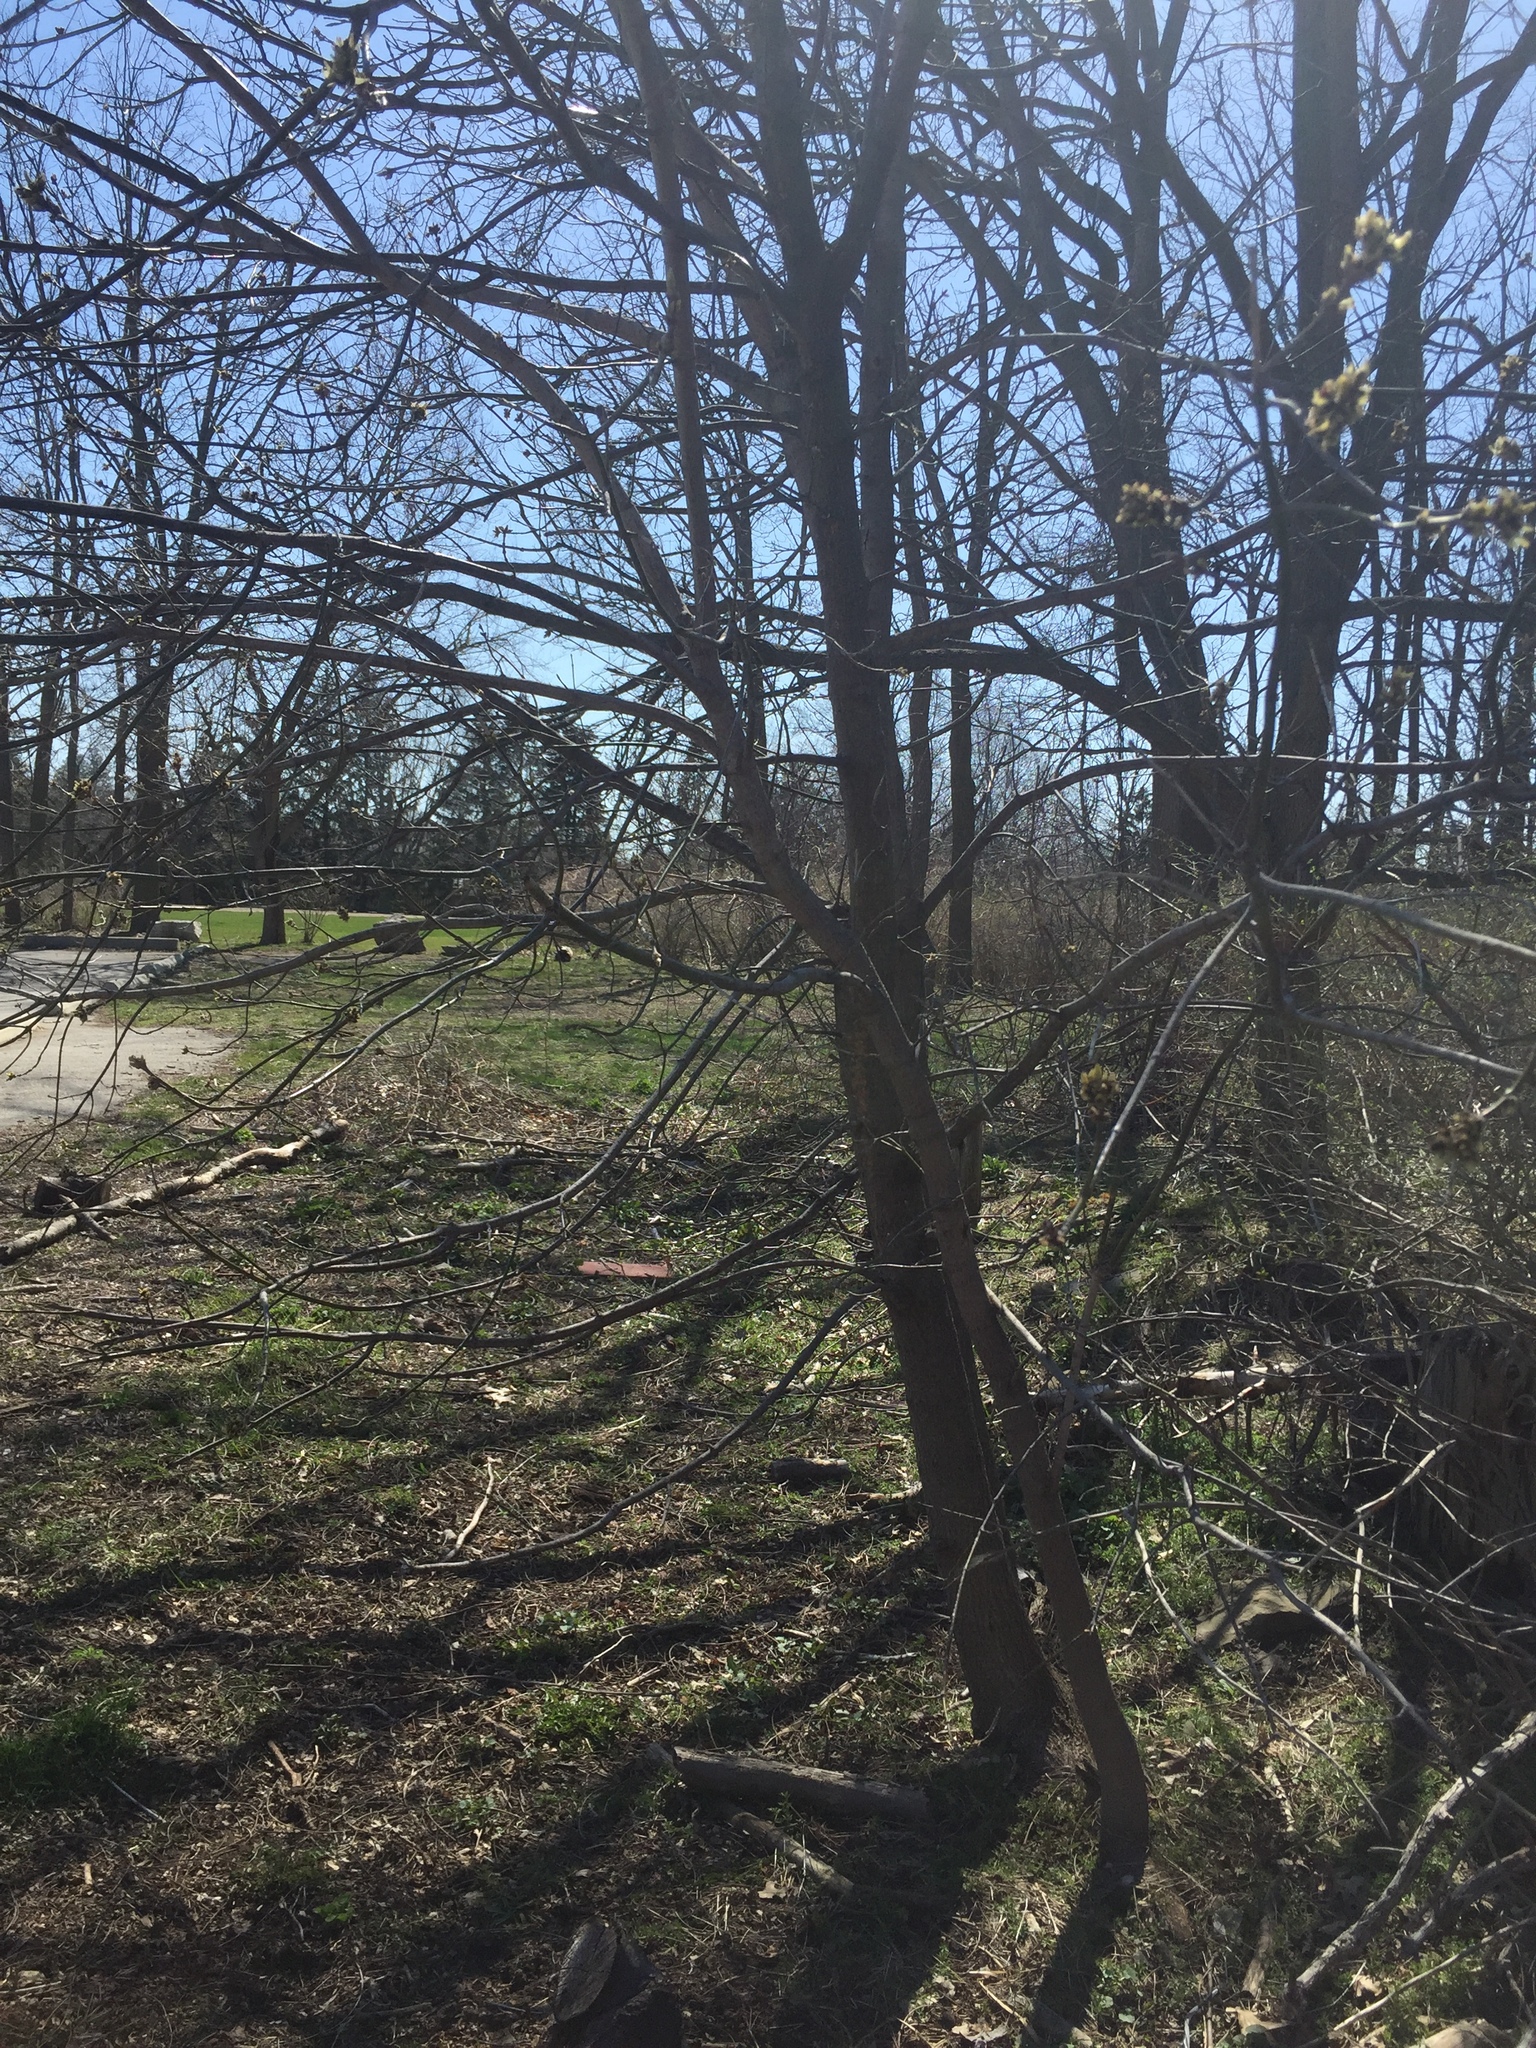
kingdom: Plantae
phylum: Tracheophyta
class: Magnoliopsida
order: Sapindales
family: Sapindaceae
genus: Acer
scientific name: Acer negundo
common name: Ashleaf maple
